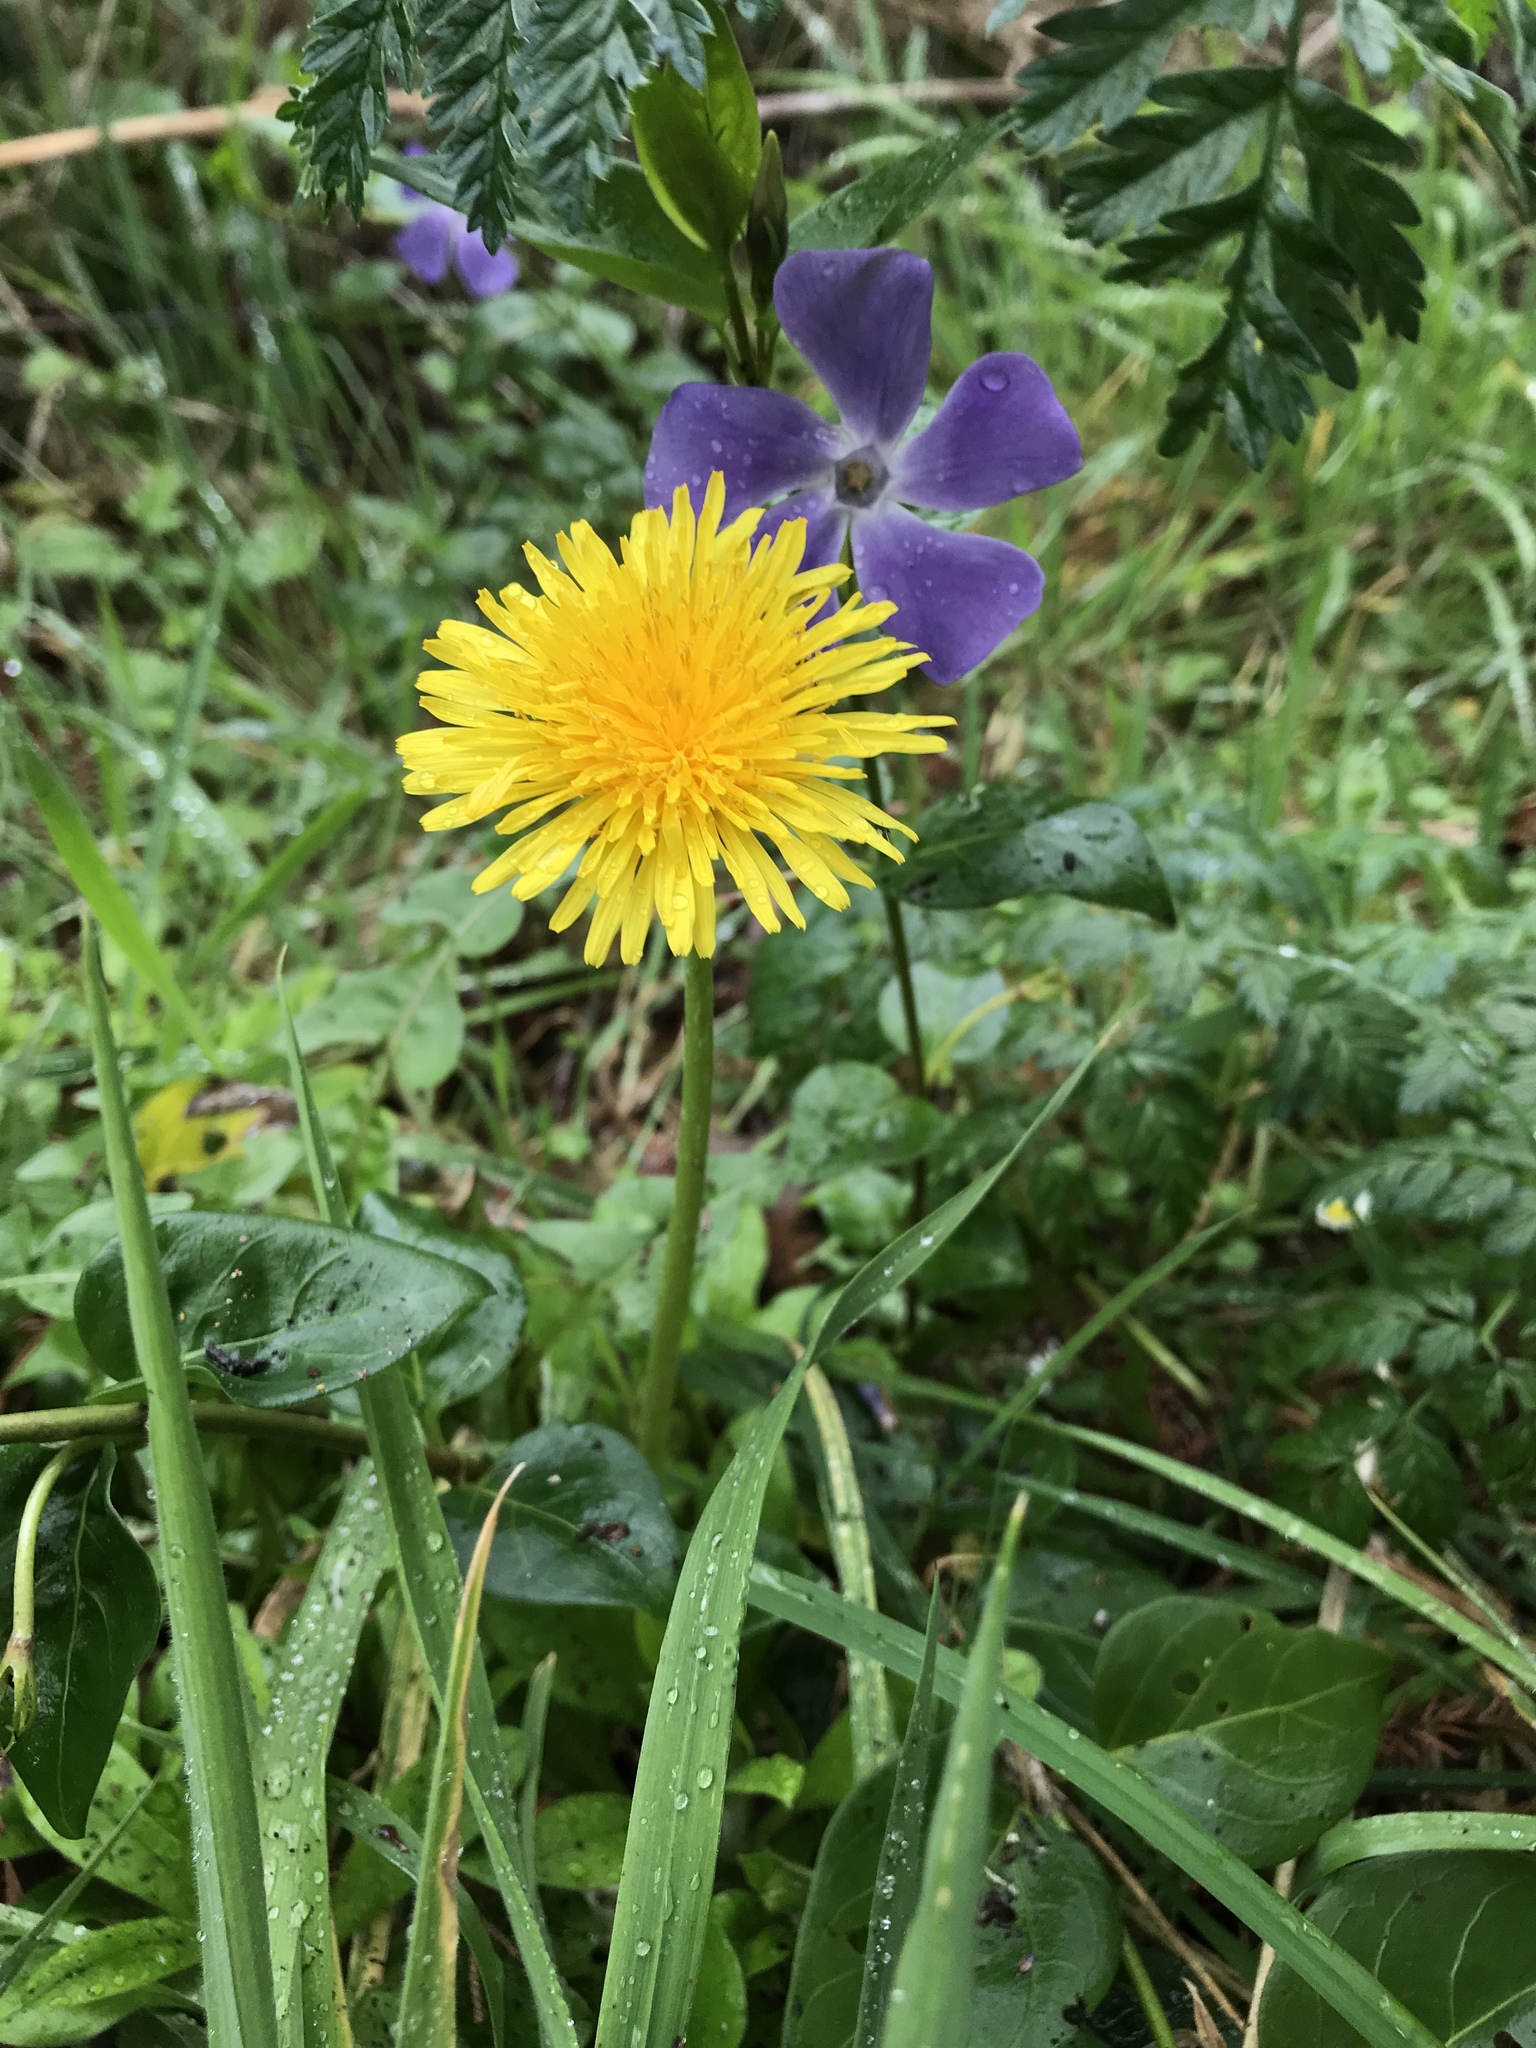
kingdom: Plantae
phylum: Tracheophyta
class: Magnoliopsida
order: Asterales
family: Asteraceae
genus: Taraxacum
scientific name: Taraxacum officinale
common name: Common dandelion
